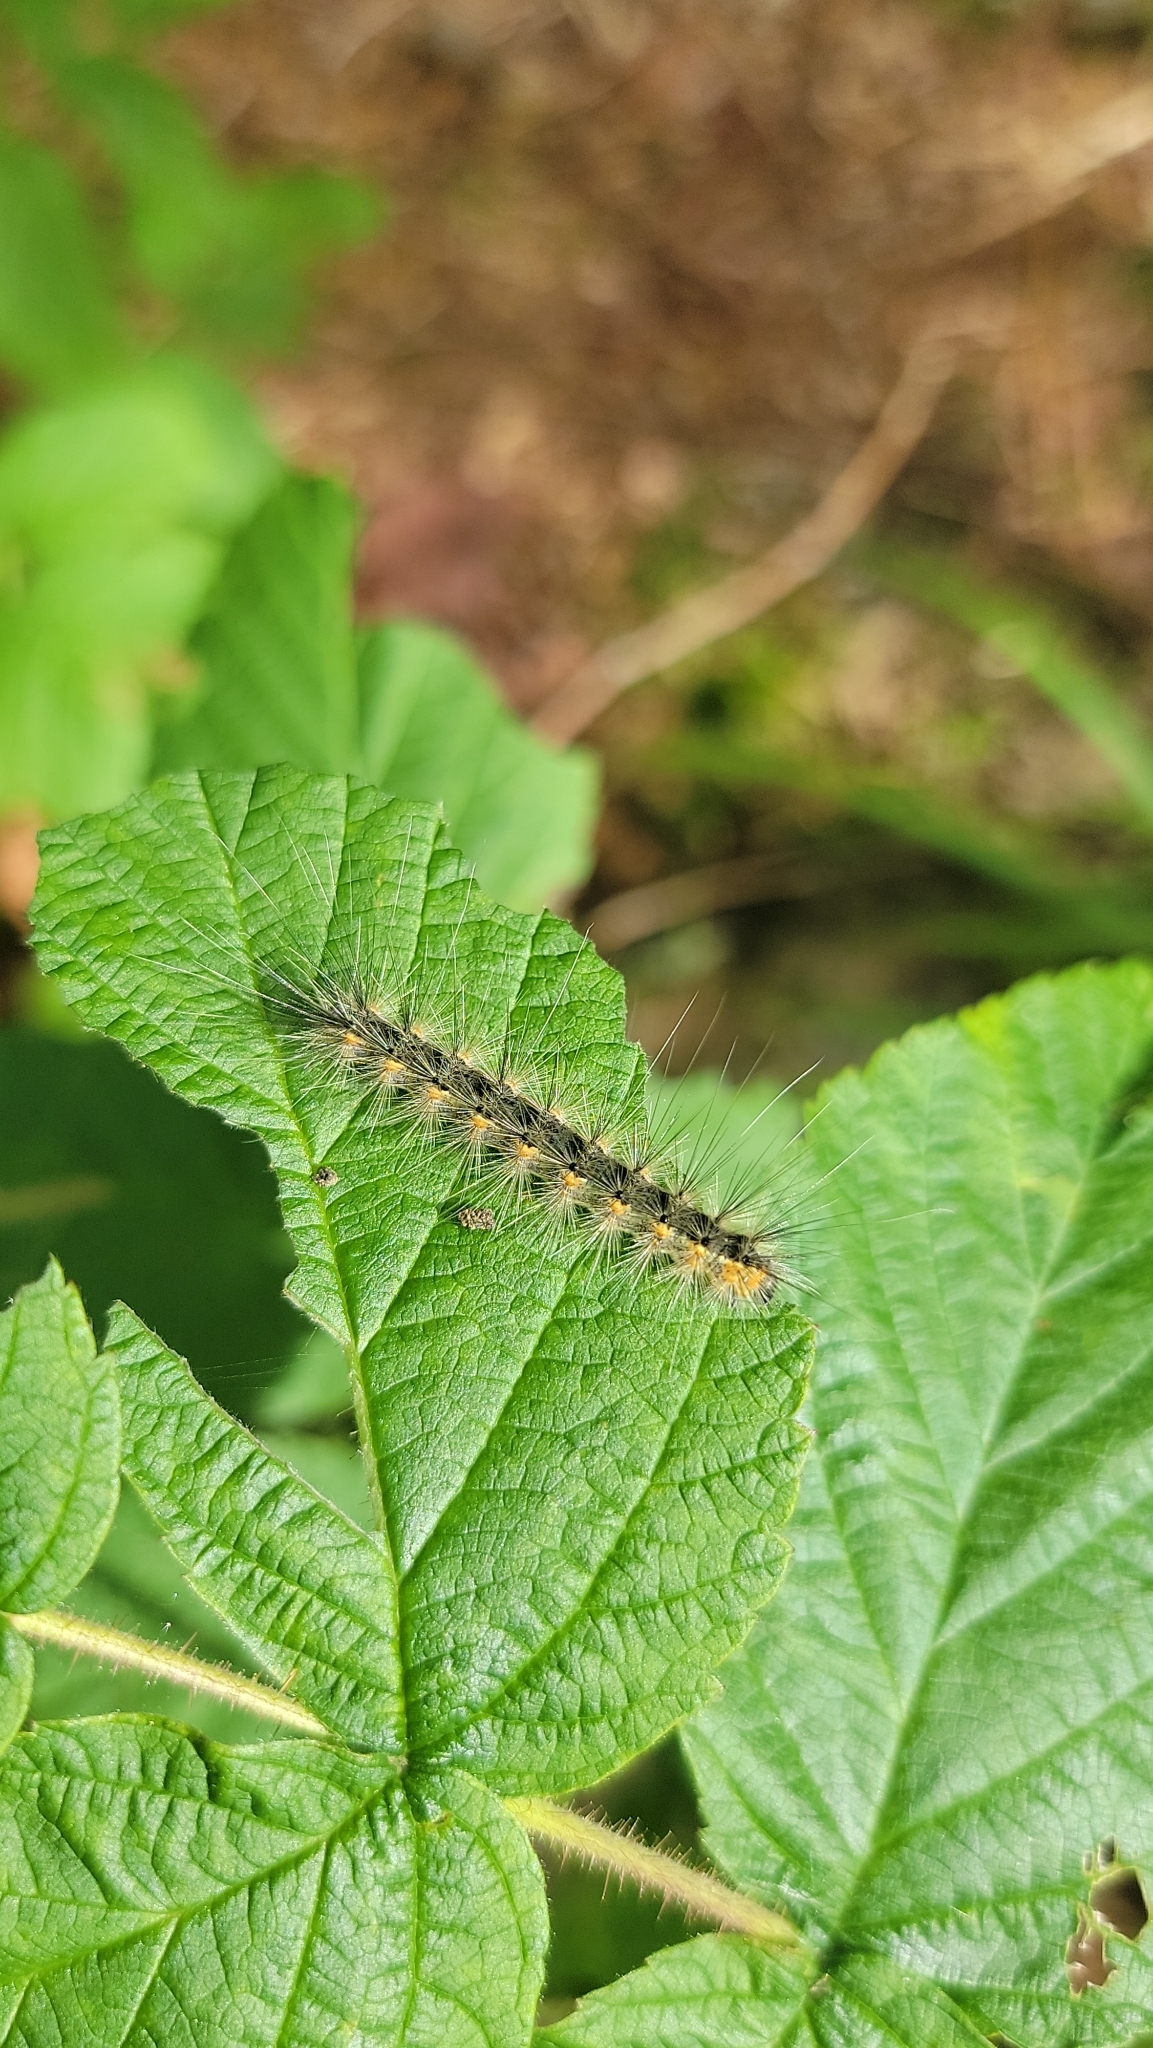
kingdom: Animalia
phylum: Arthropoda
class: Insecta
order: Lepidoptera
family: Erebidae
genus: Hyphantria
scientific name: Hyphantria cunea
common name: American white moth
